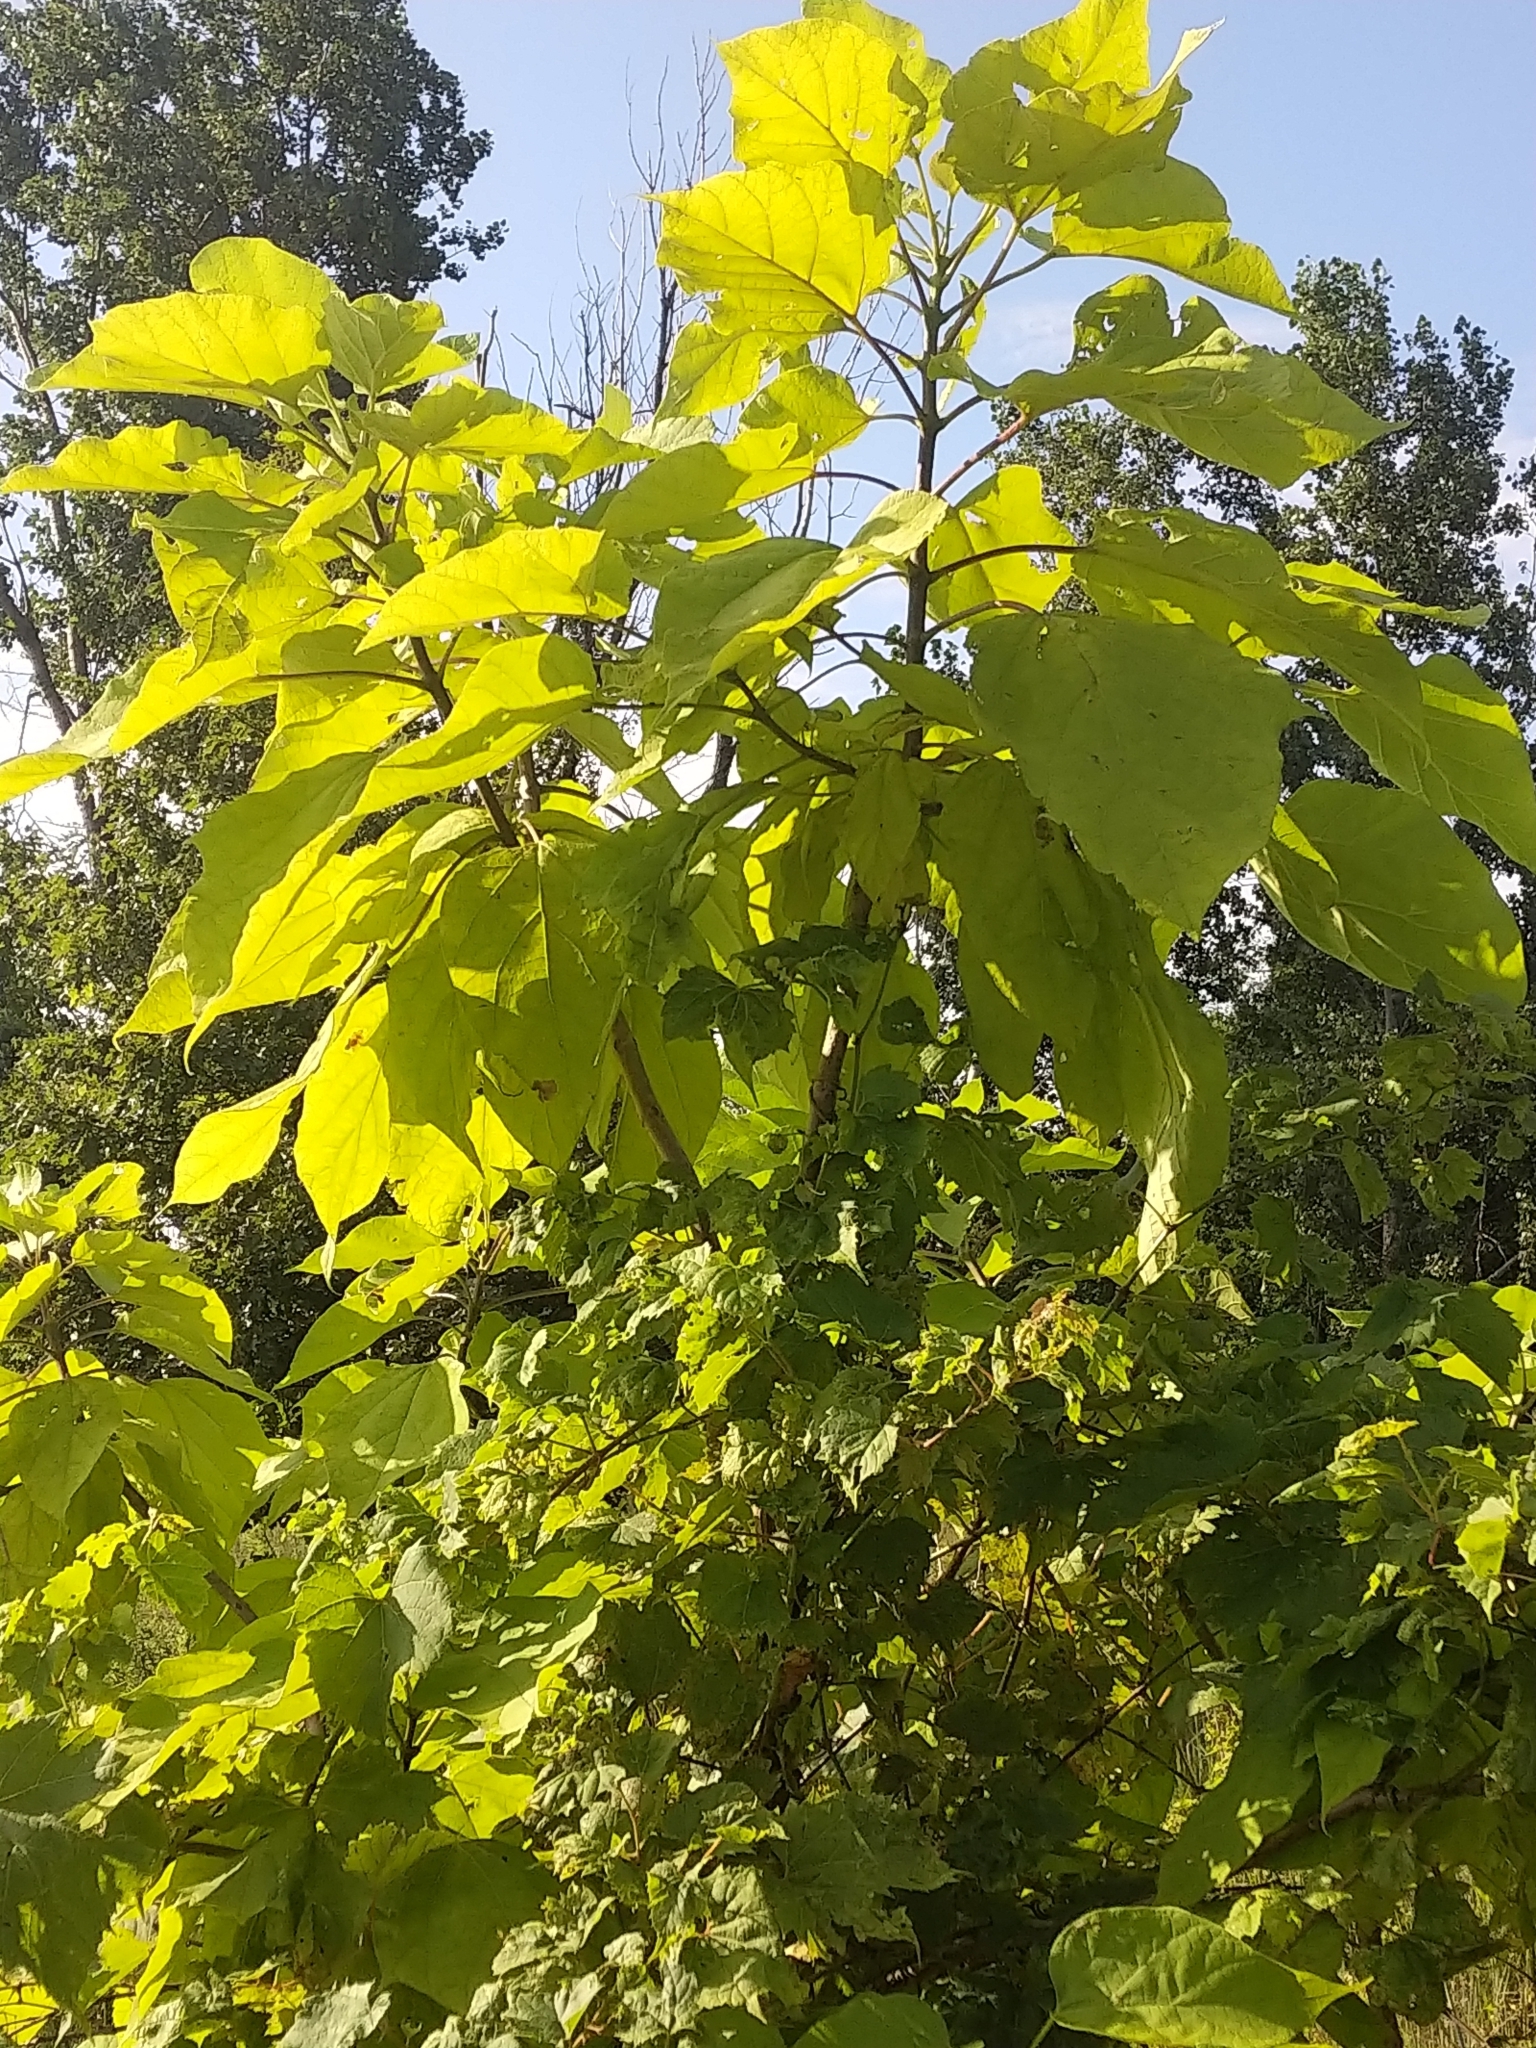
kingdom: Plantae
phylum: Tracheophyta
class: Magnoliopsida
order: Lamiales
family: Bignoniaceae
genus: Catalpa
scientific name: Catalpa speciosa
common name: Northern catalpa
